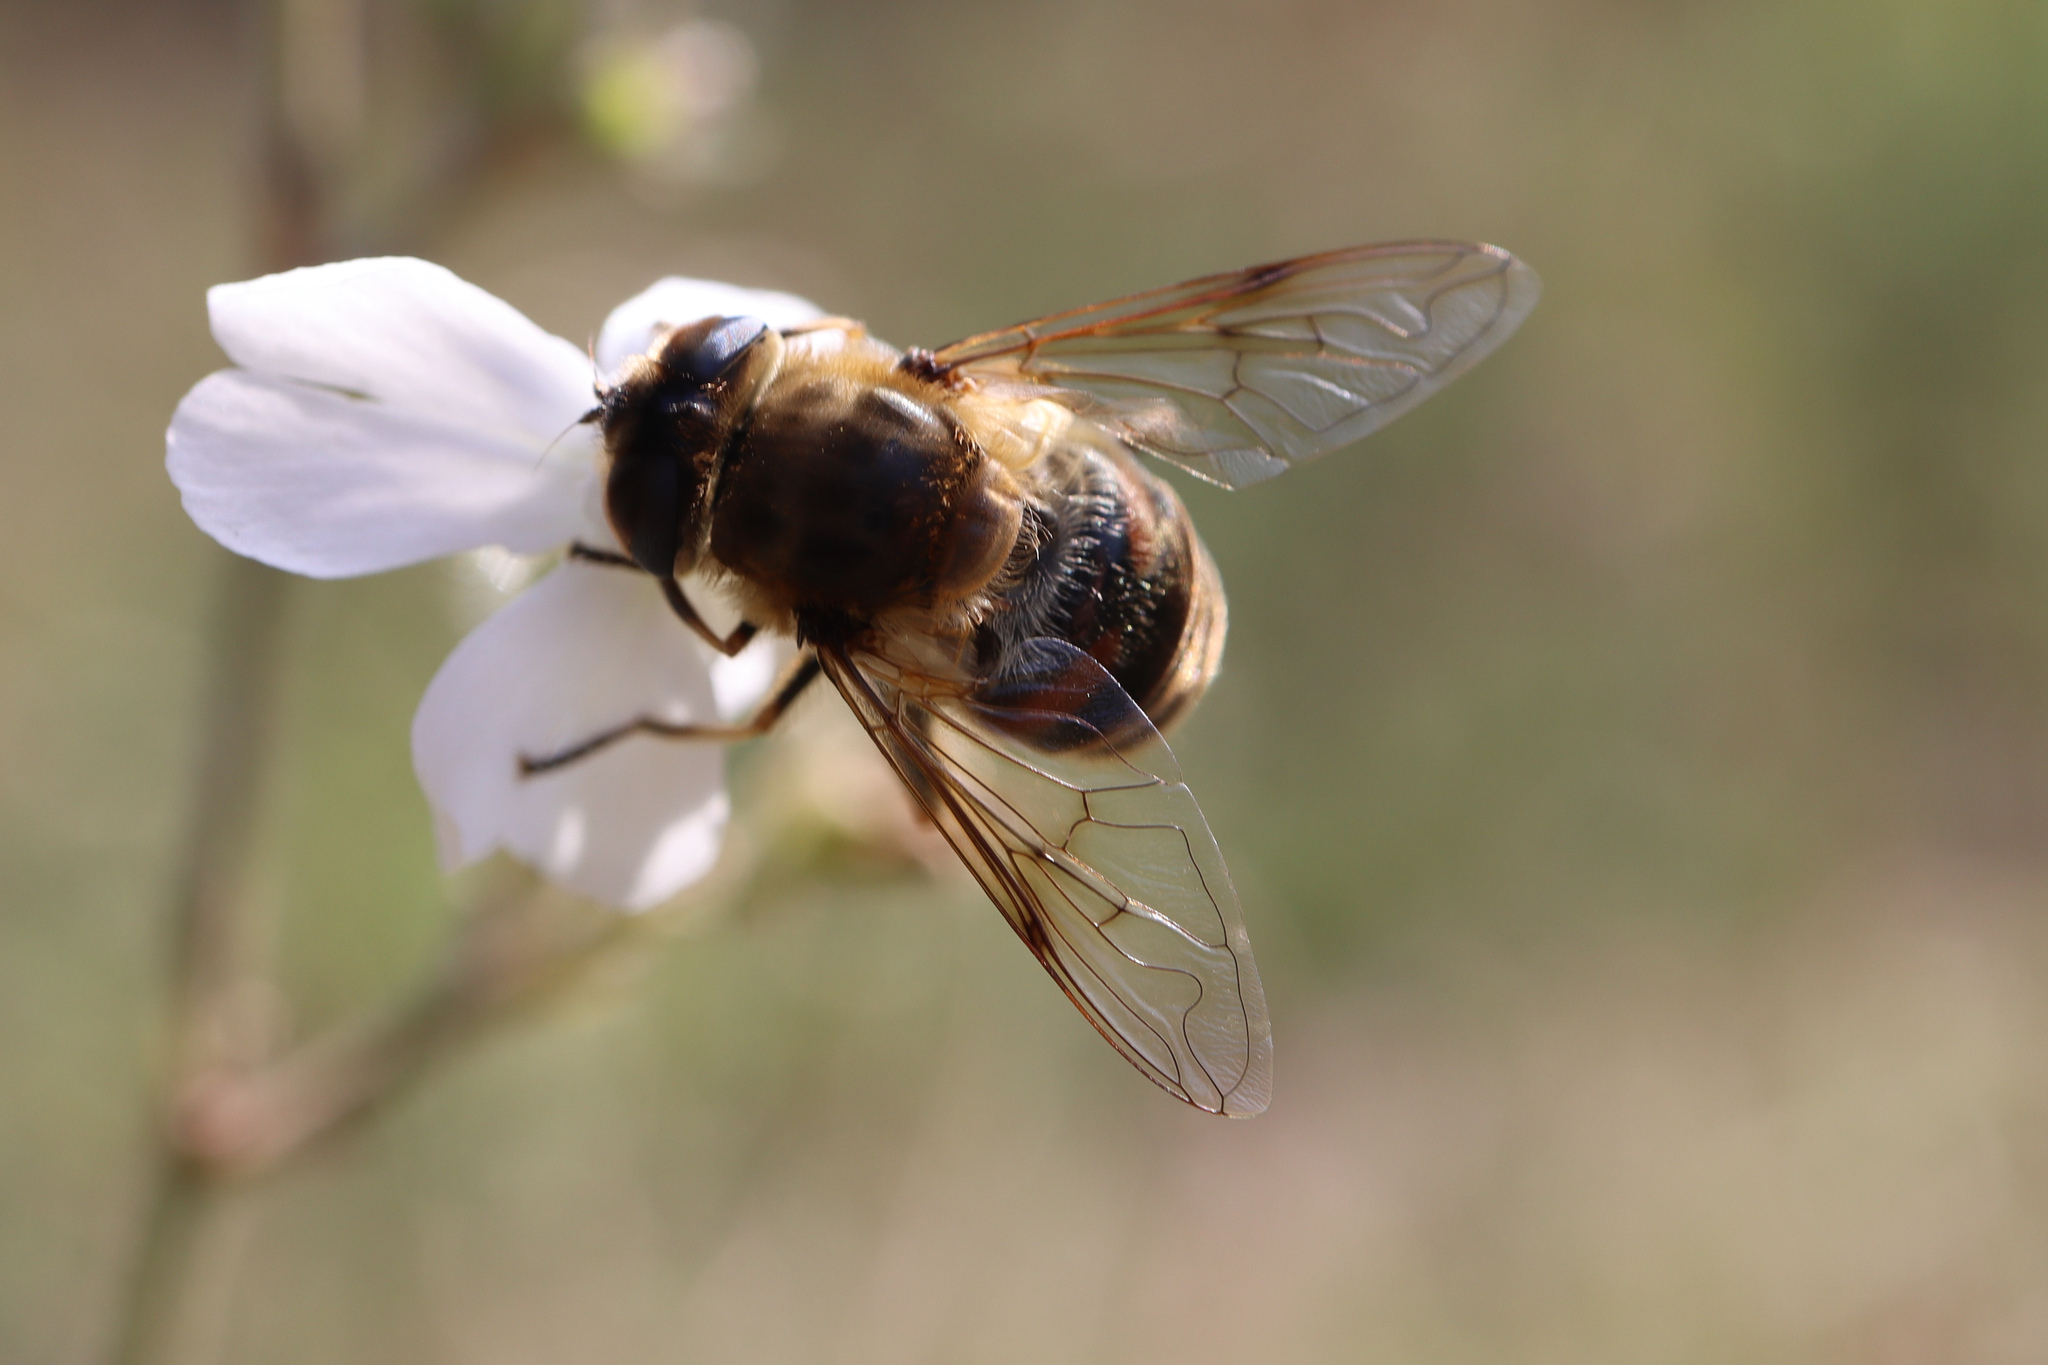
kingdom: Animalia
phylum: Arthropoda
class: Insecta
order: Diptera
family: Syrphidae
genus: Eristalis
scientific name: Eristalis tenax
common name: Drone fly
